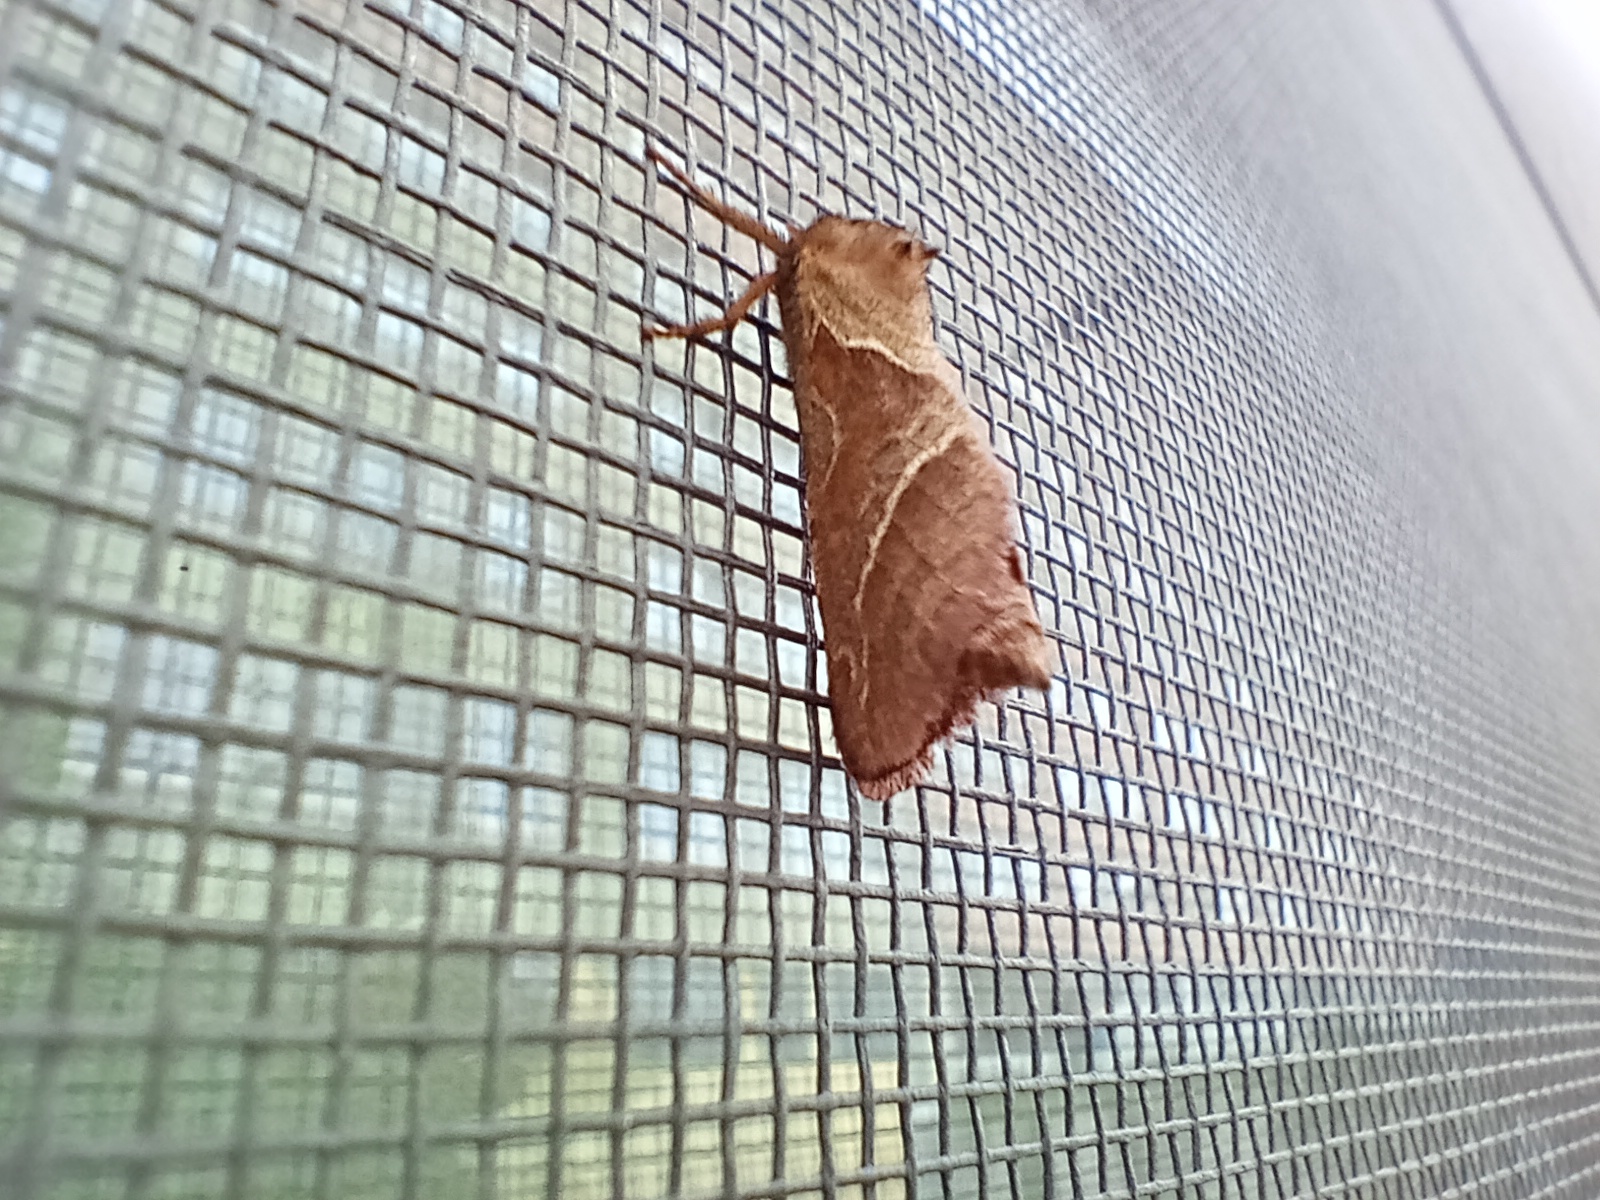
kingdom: Animalia
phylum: Arthropoda
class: Insecta
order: Lepidoptera
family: Hepialidae
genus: Triodia
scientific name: Triodia sylvina
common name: Orange swift
